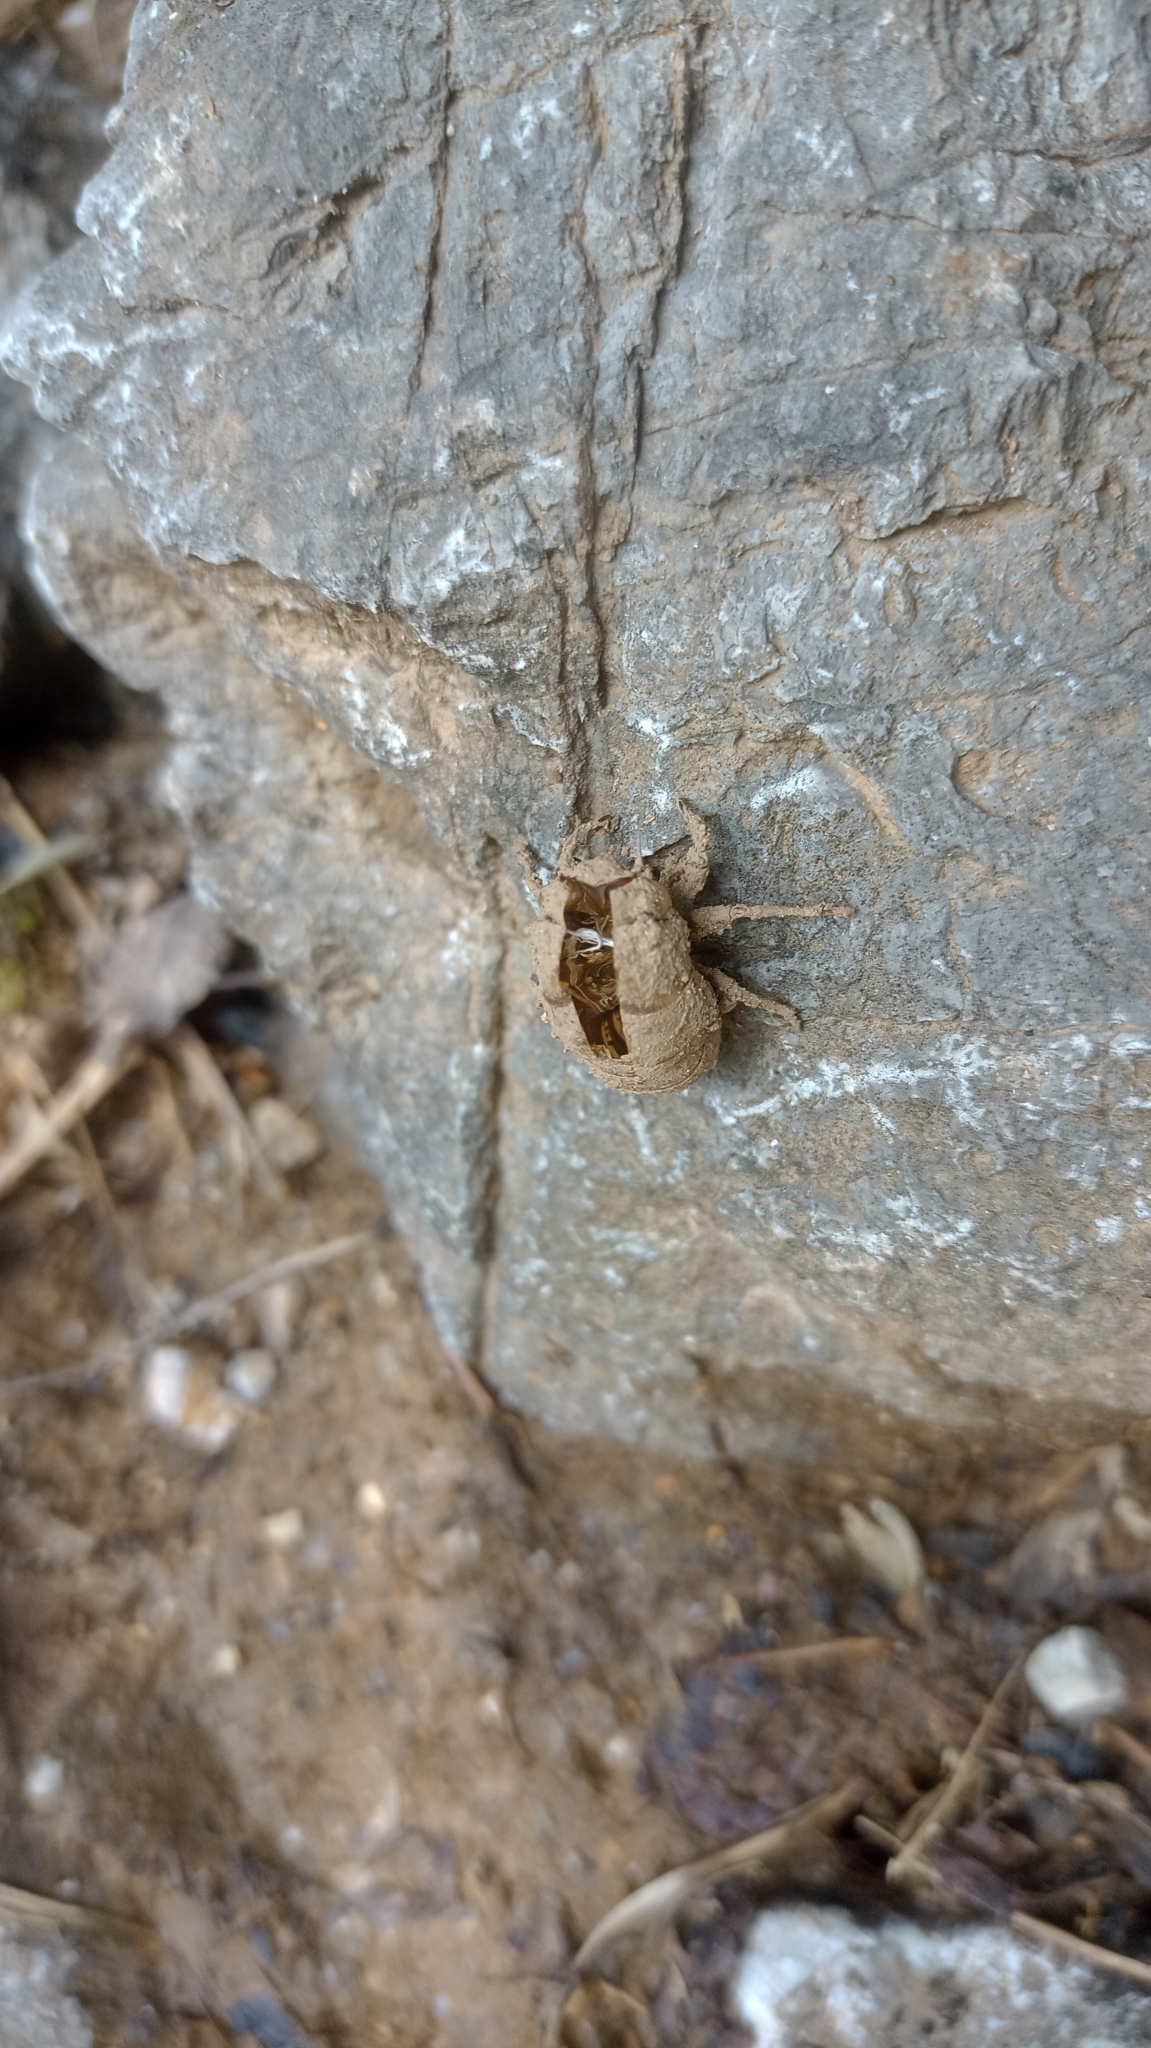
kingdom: Animalia
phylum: Arthropoda
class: Insecta
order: Hemiptera
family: Cicadidae
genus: Platypleura
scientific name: Platypleura kaempferi
